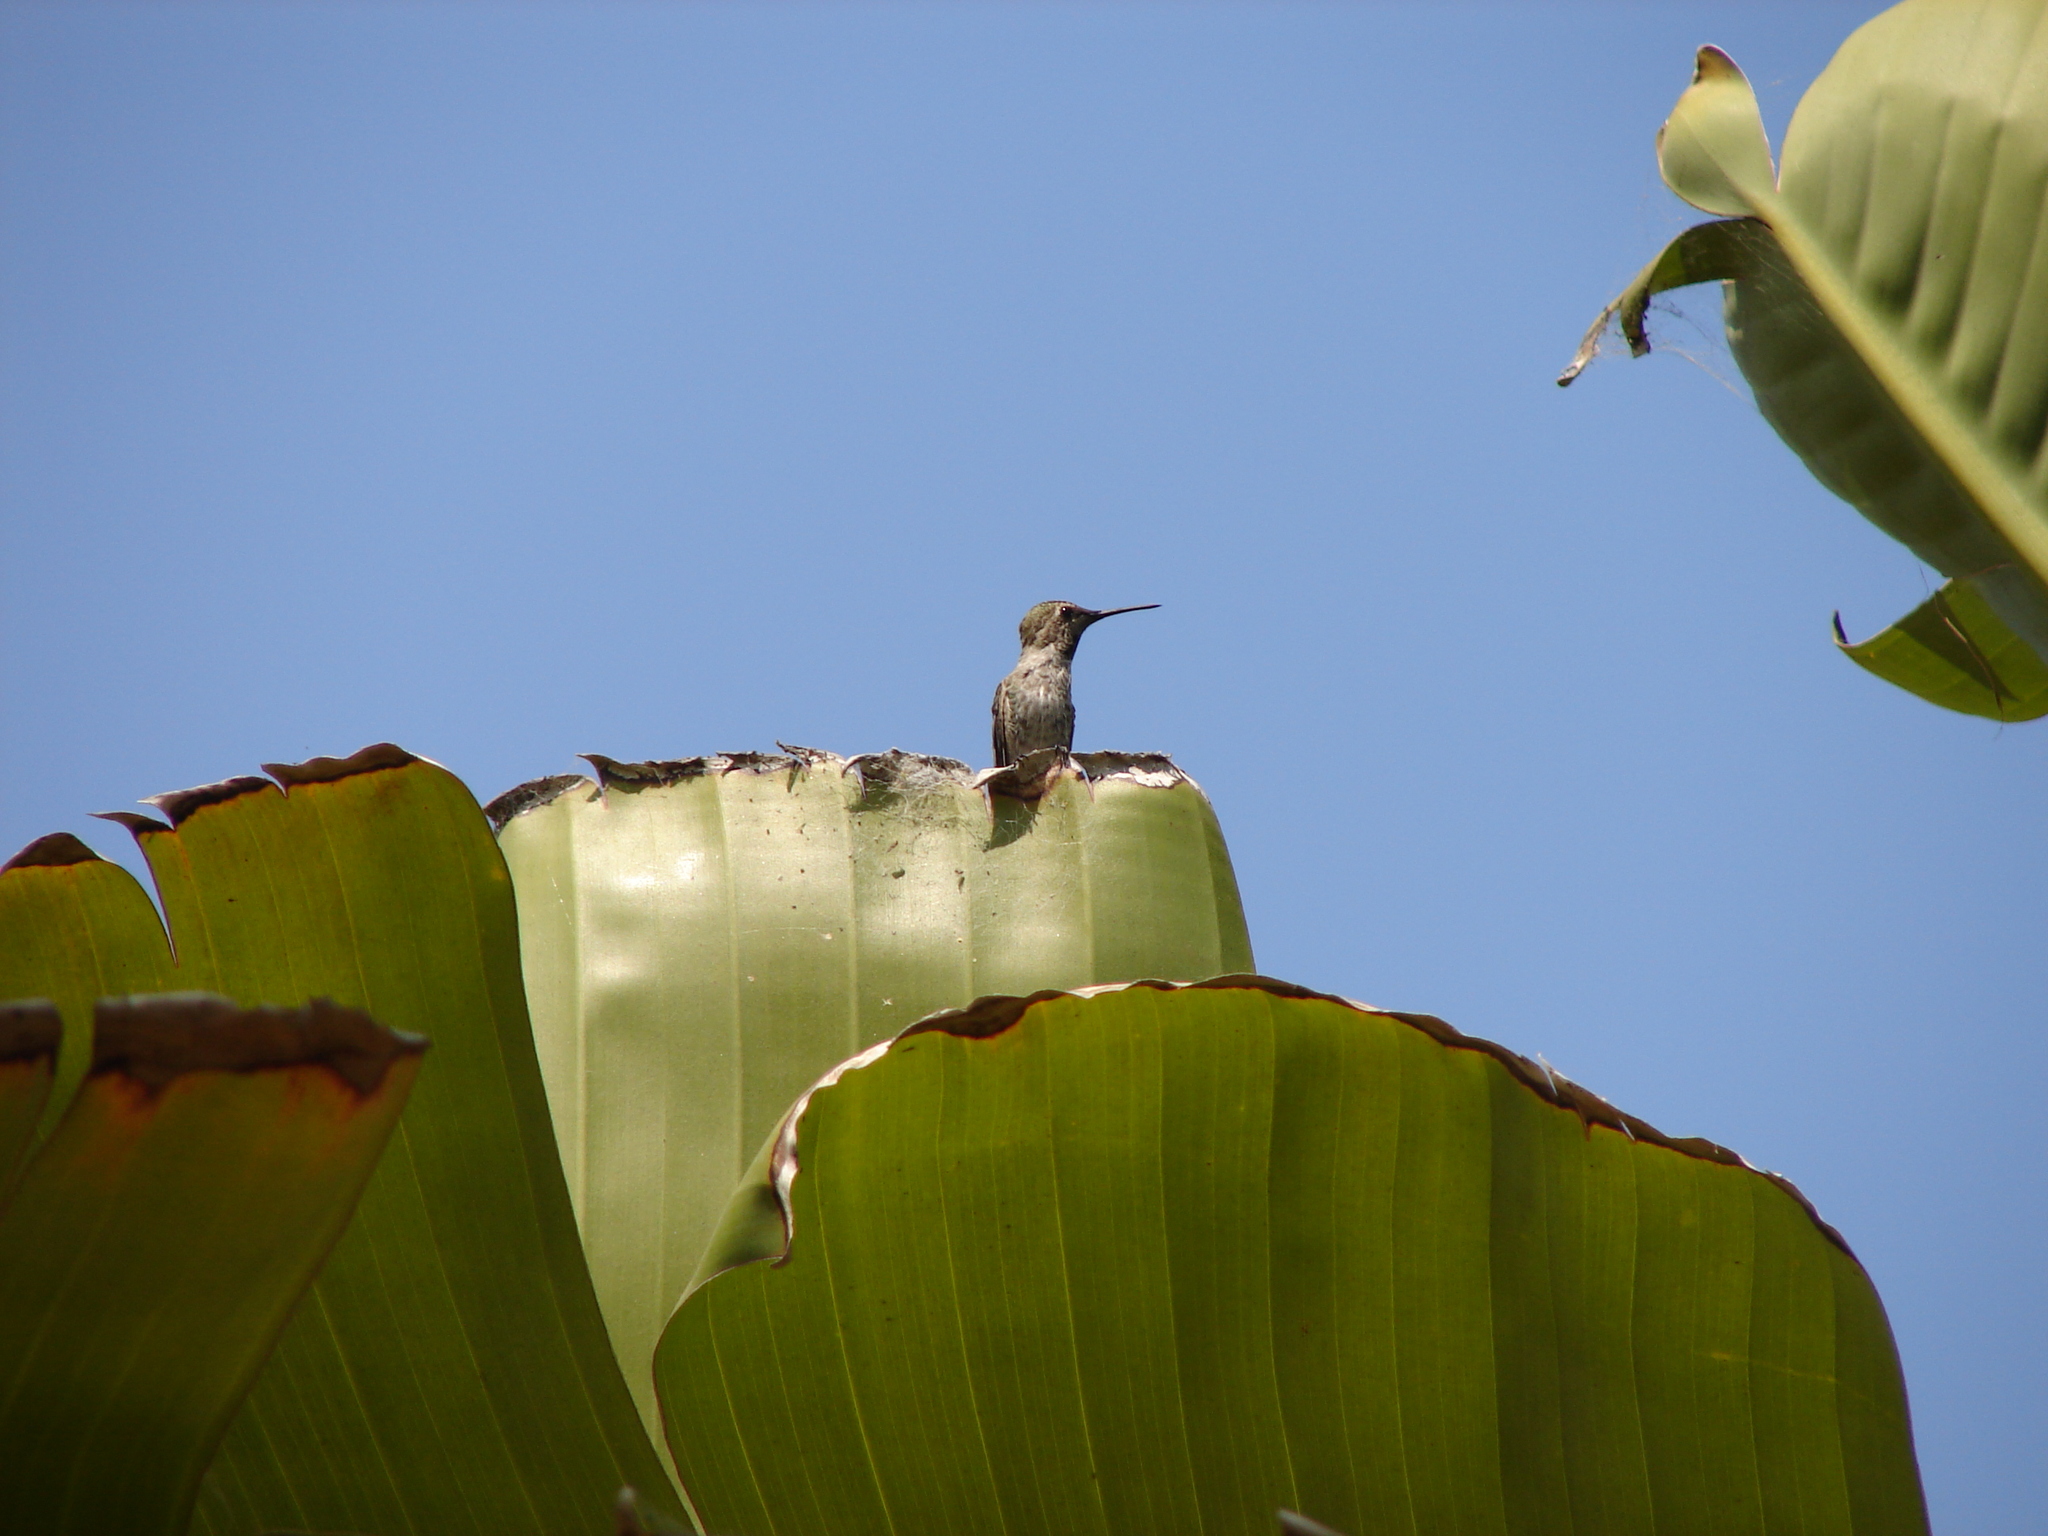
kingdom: Animalia
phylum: Chordata
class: Aves
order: Apodiformes
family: Trochilidae
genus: Calypte
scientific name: Calypte anna
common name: Anna's hummingbird
